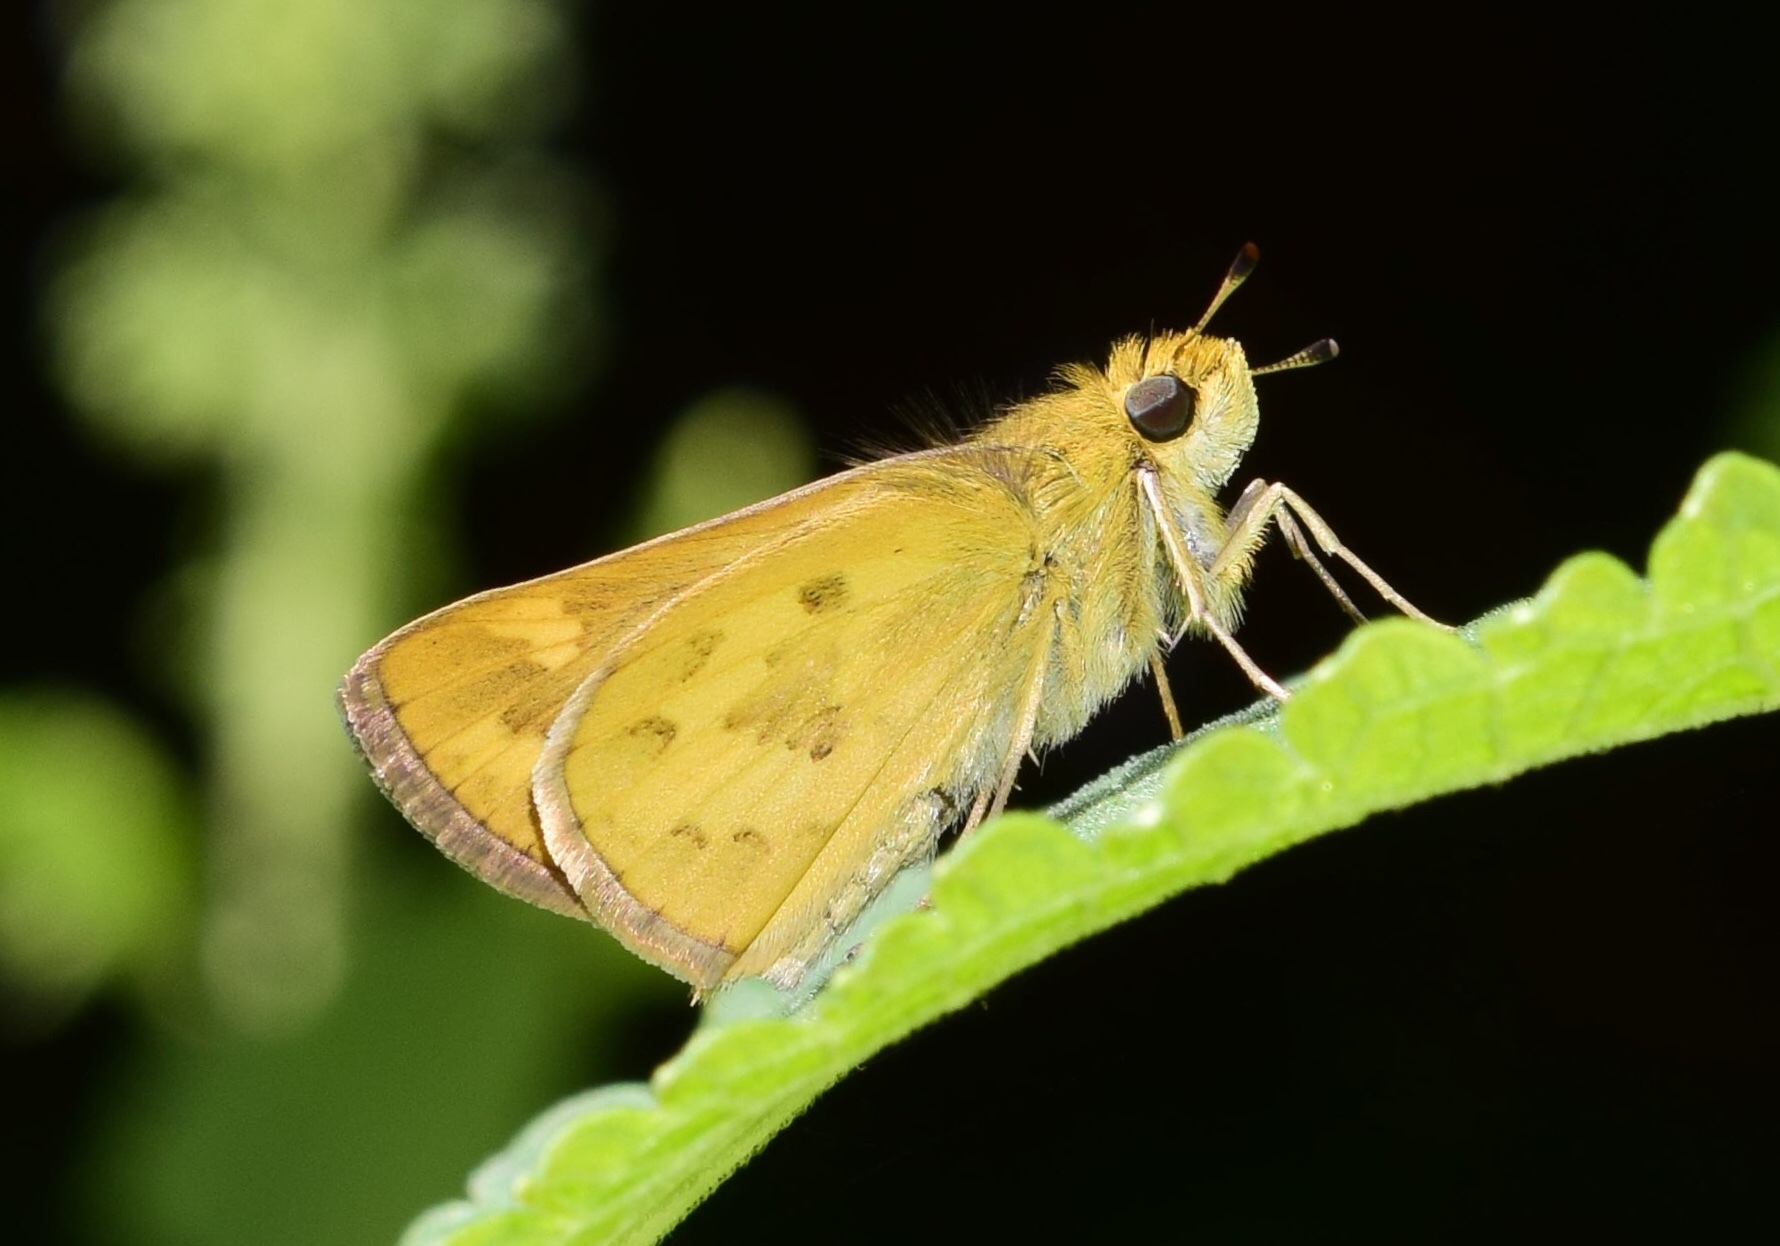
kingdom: Animalia
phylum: Arthropoda
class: Insecta
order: Hymenoptera
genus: Afrogenes
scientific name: Afrogenes
